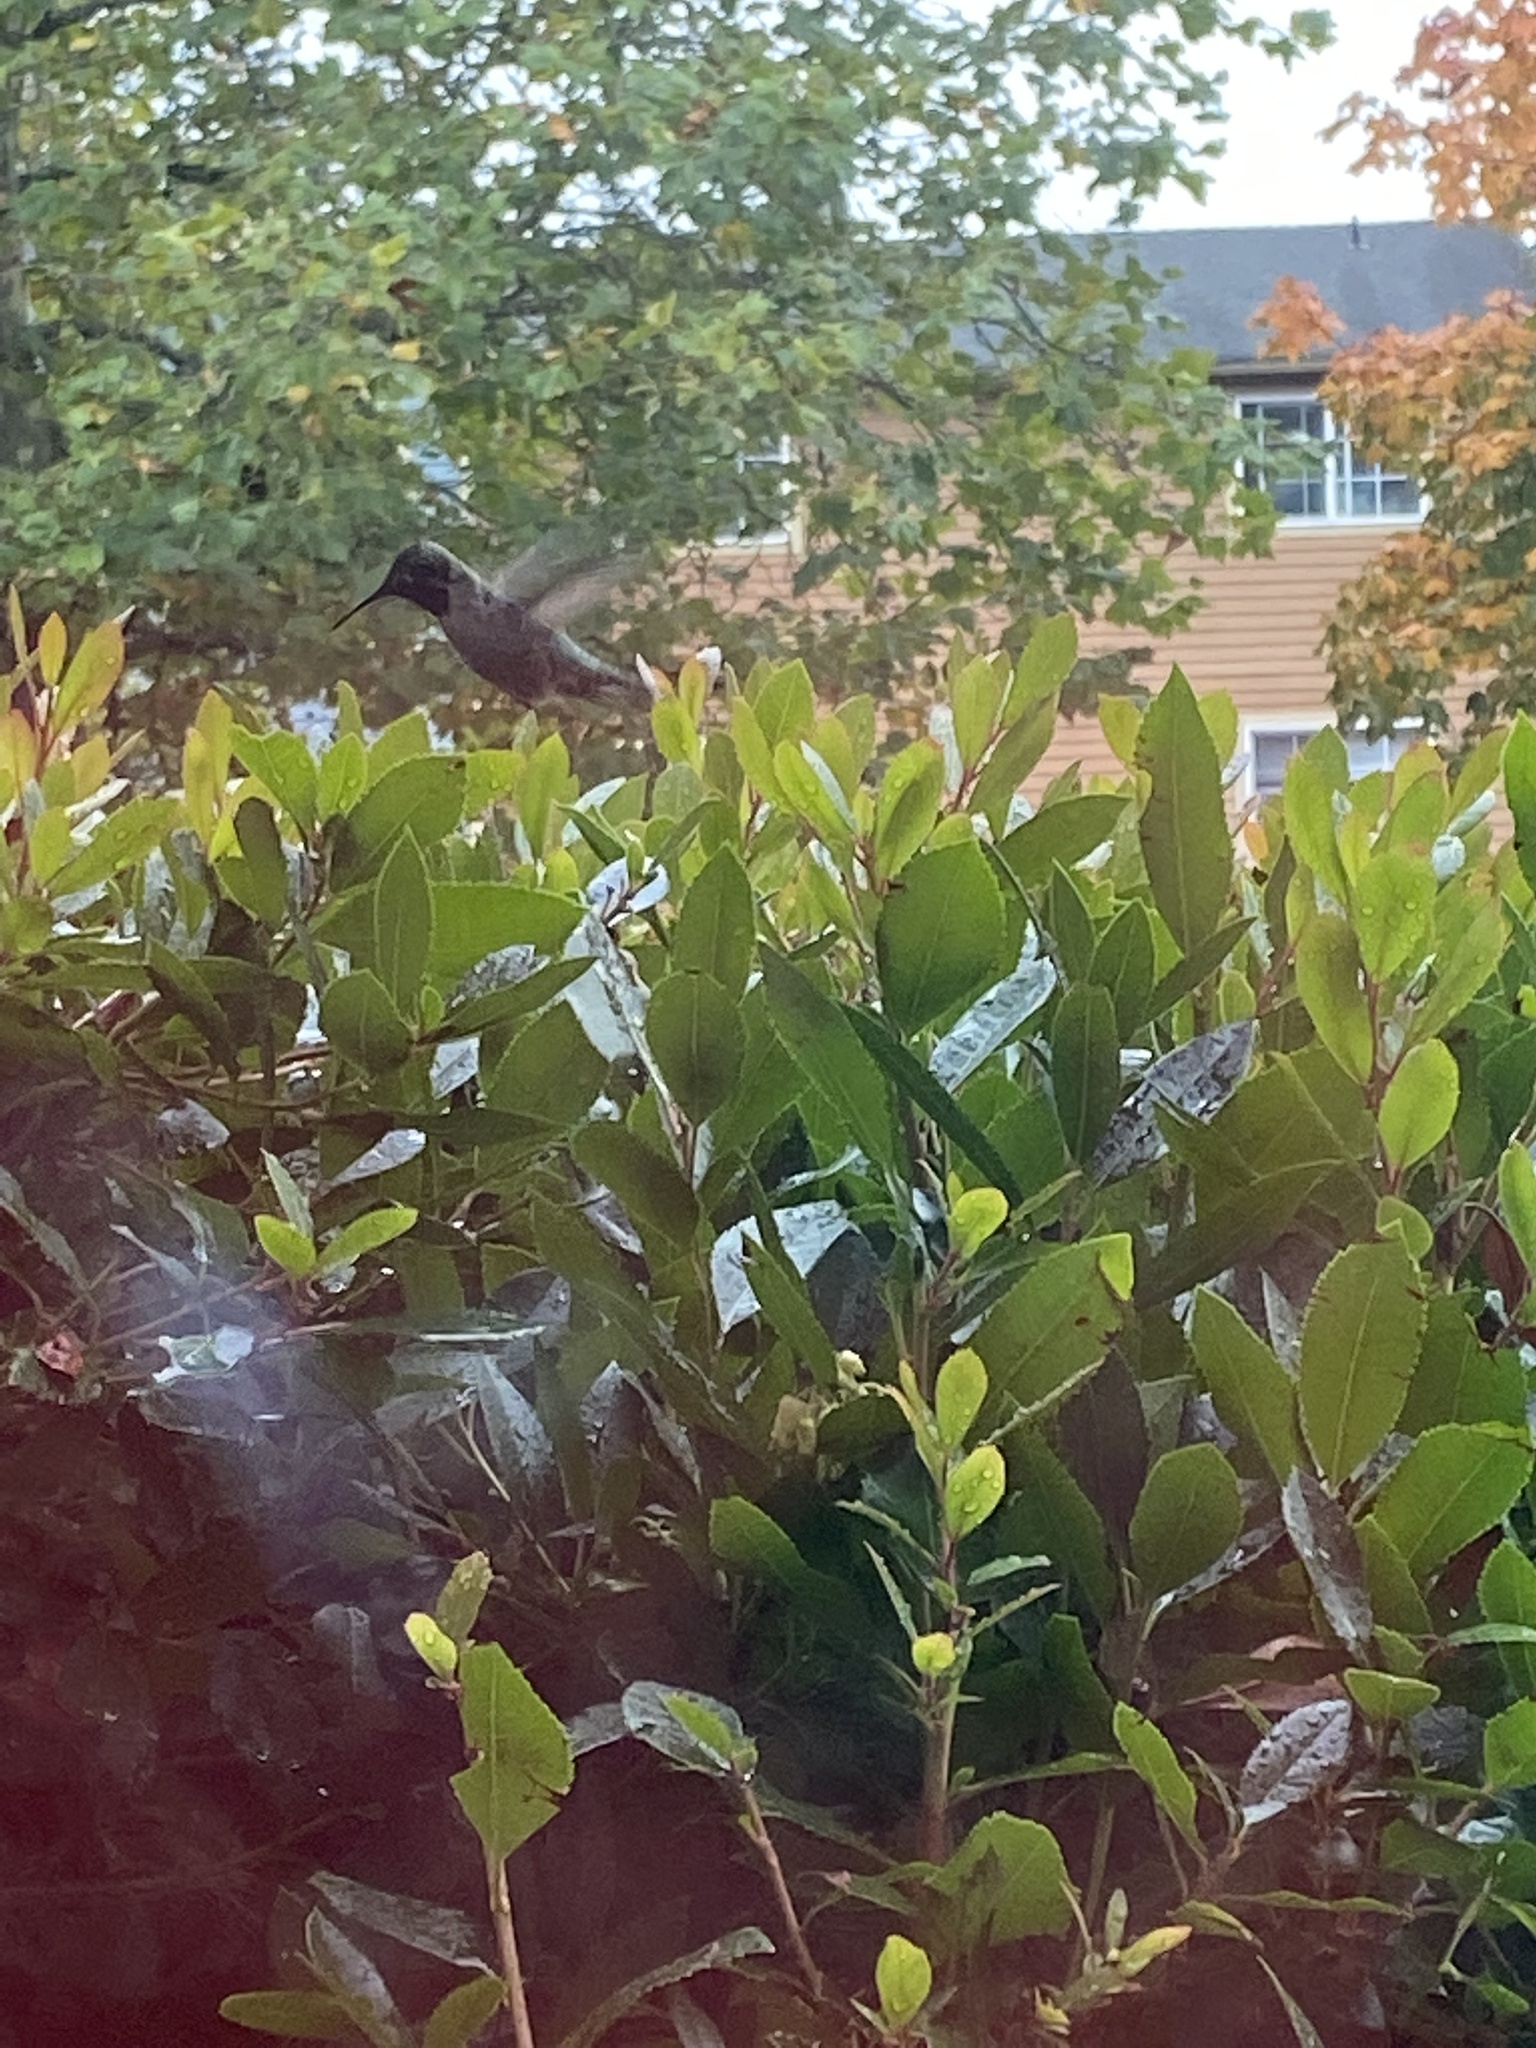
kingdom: Animalia
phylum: Chordata
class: Aves
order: Apodiformes
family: Trochilidae
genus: Calypte
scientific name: Calypte anna
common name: Anna's hummingbird
